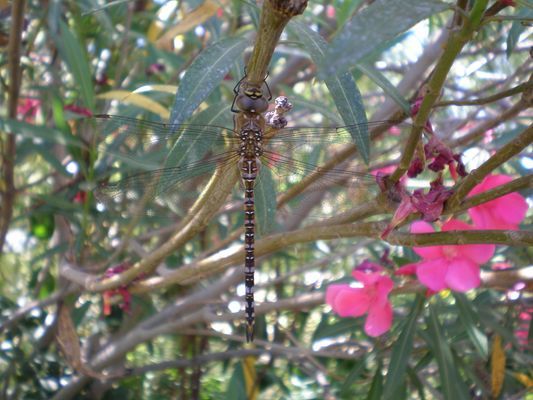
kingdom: Animalia
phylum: Arthropoda
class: Insecta
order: Odonata
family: Aeshnidae
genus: Aeshna
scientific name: Aeshna mixta
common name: Migrant hawker
